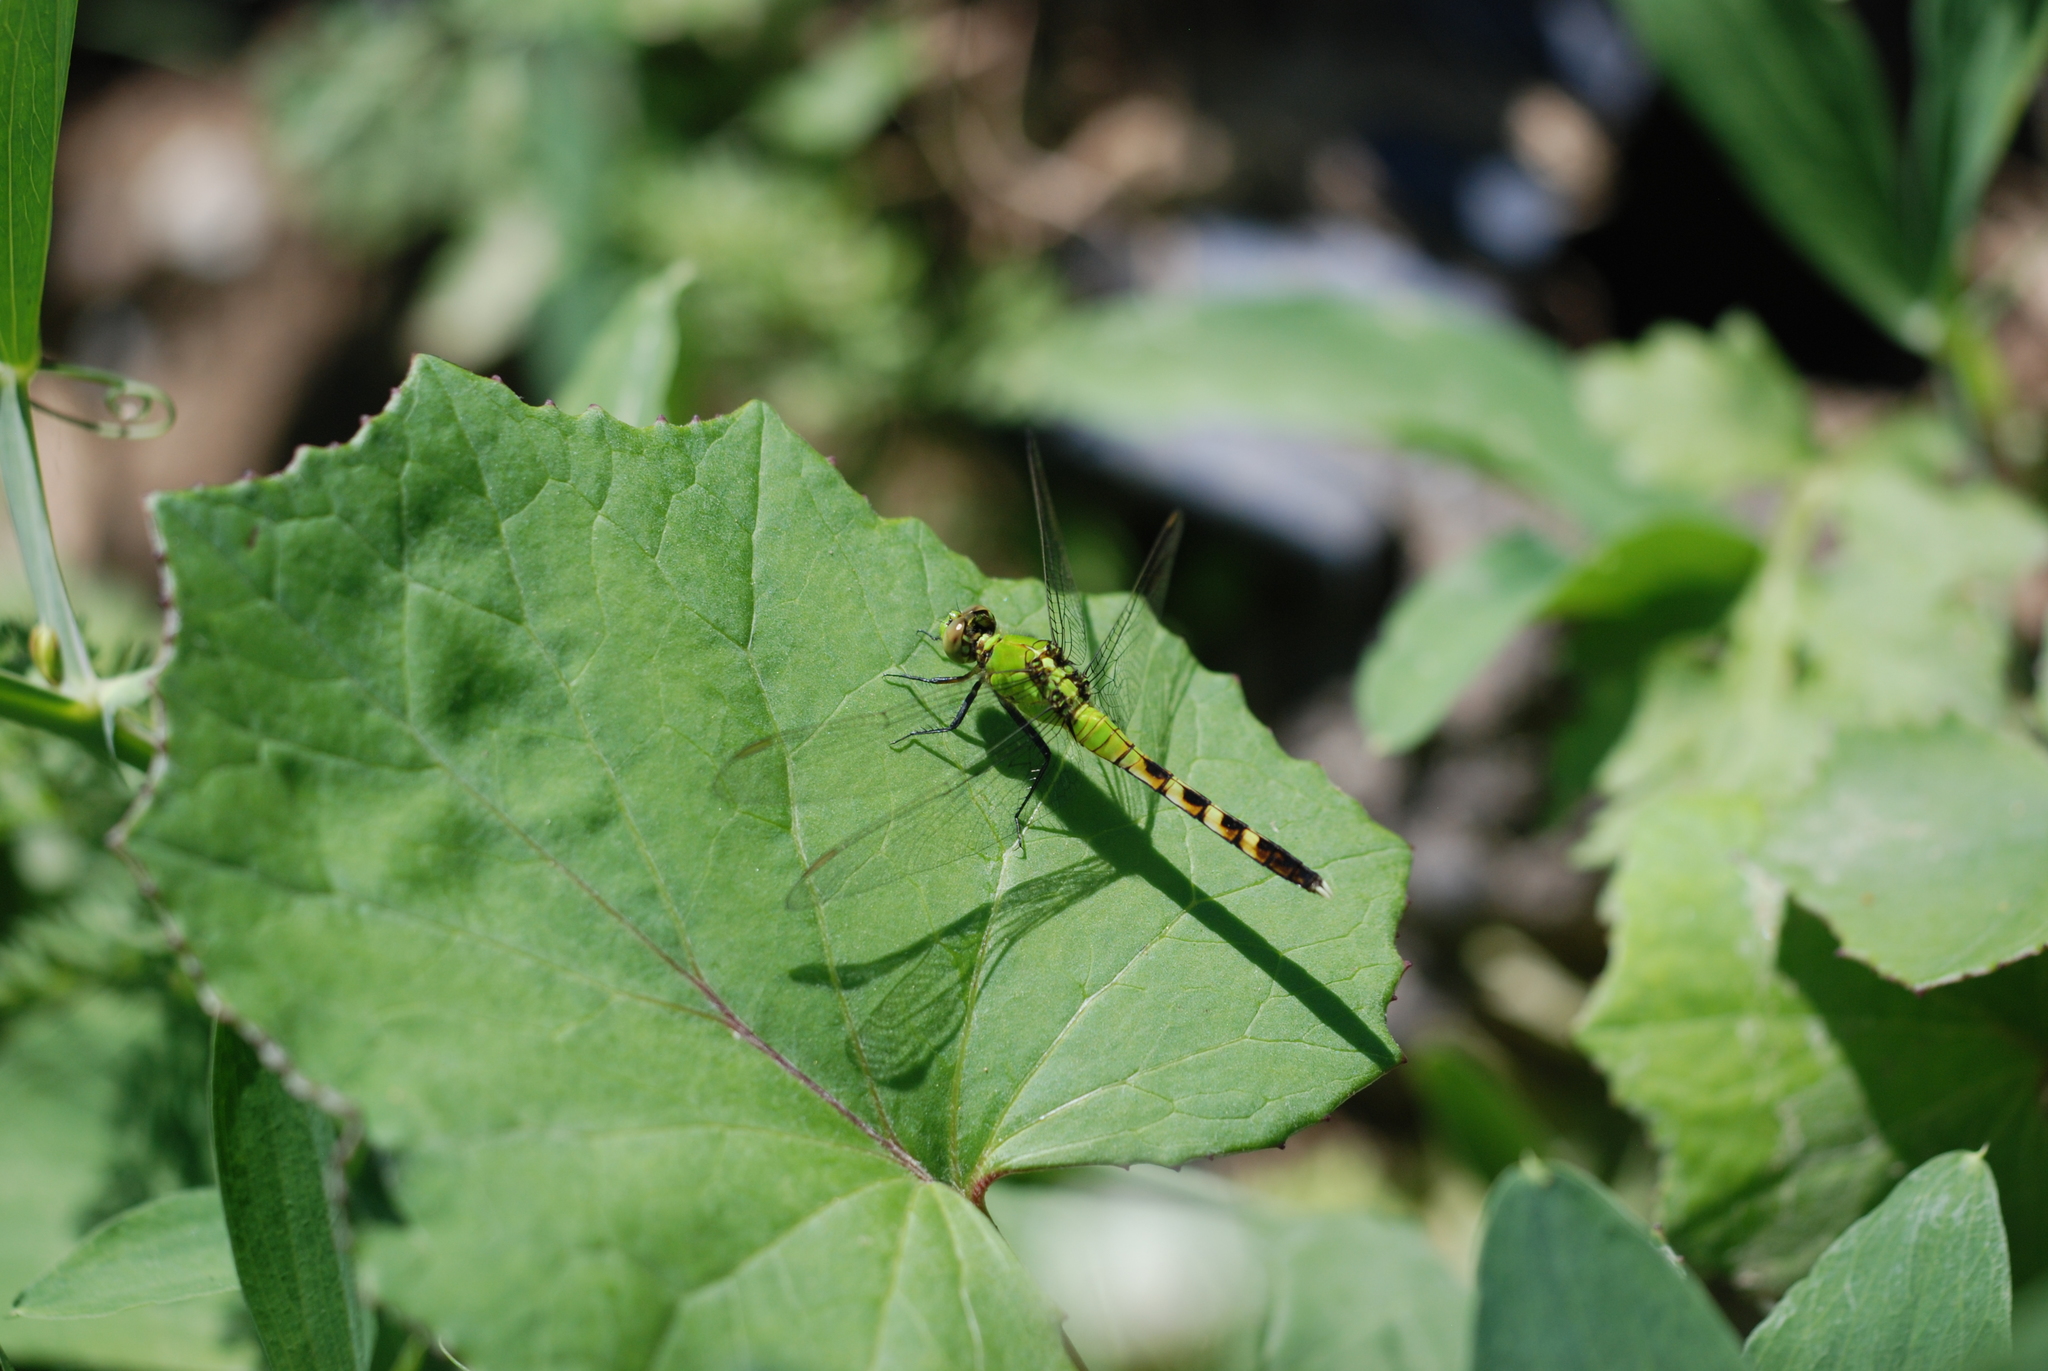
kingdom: Animalia
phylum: Arthropoda
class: Insecta
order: Odonata
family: Libellulidae
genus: Erythemis
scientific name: Erythemis simplicicollis
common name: Eastern pondhawk
